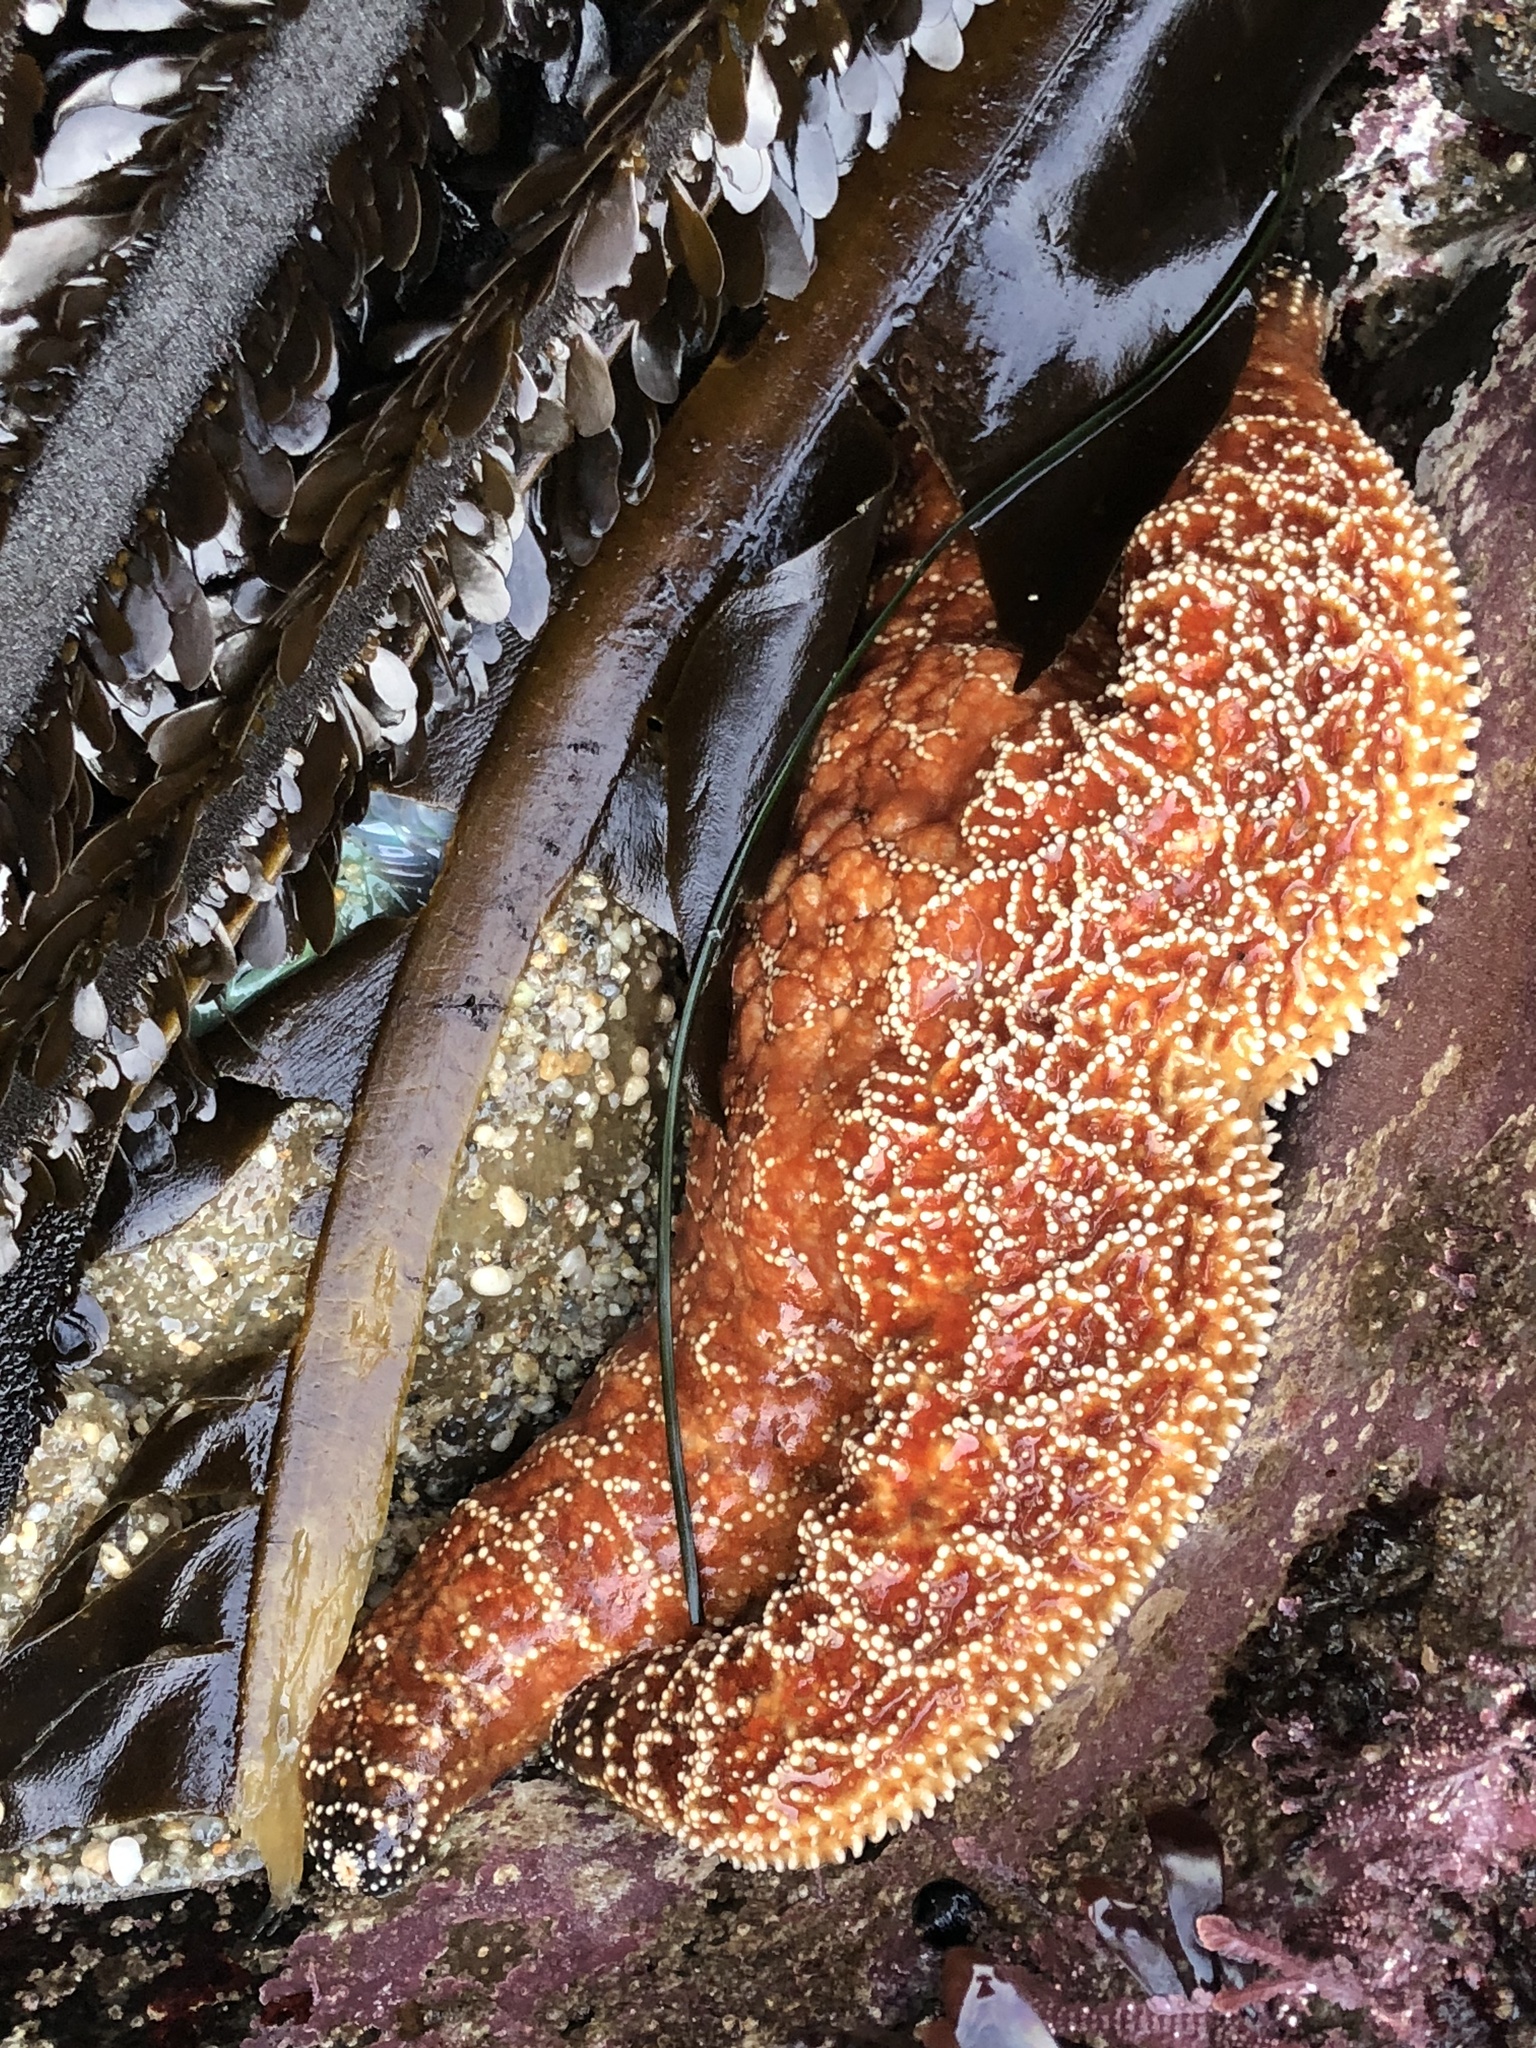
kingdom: Animalia
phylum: Echinodermata
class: Asteroidea
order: Forcipulatida
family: Asteriidae
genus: Pisaster
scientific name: Pisaster ochraceus
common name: Ochre stars
